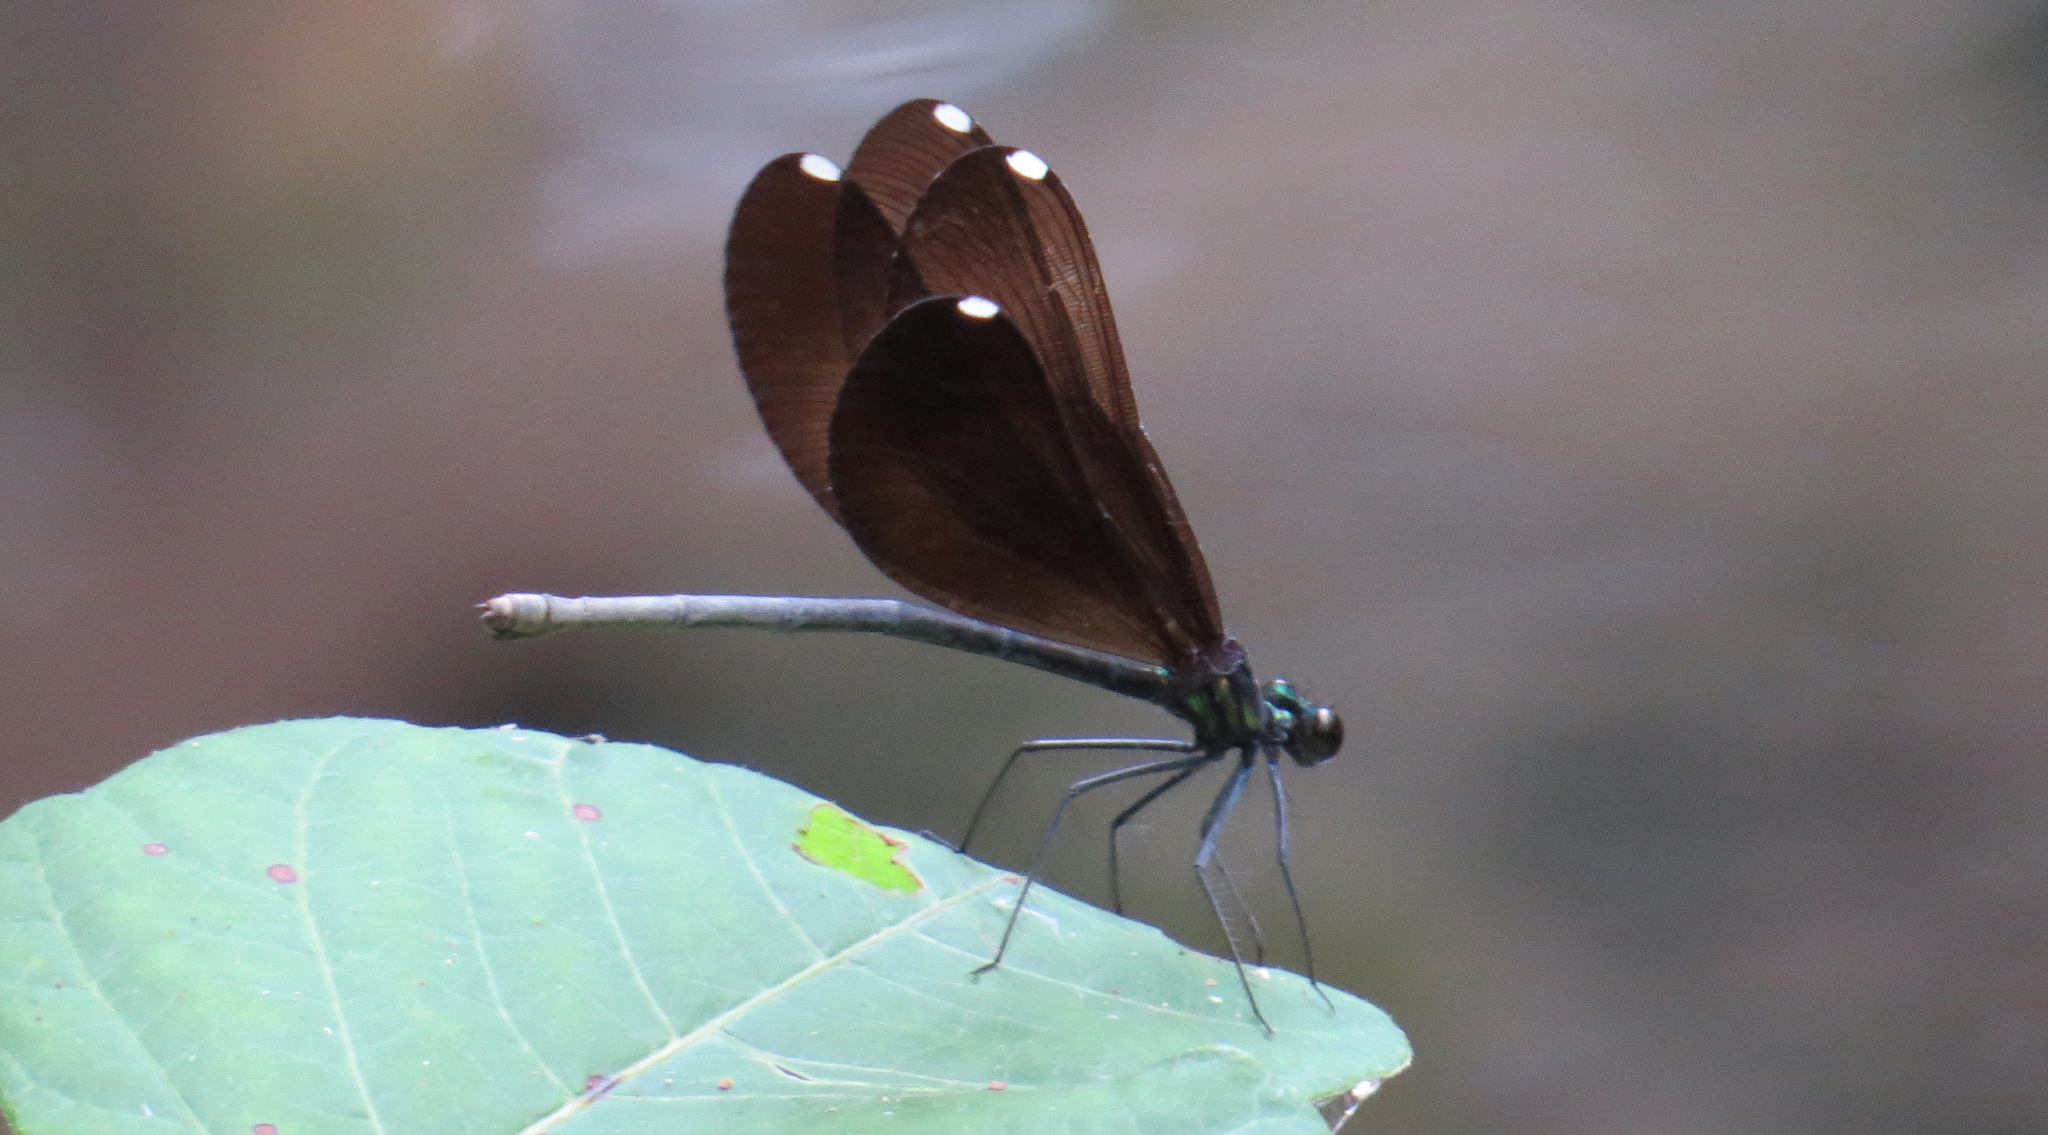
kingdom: Animalia
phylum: Arthropoda
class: Insecta
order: Odonata
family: Calopterygidae
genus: Calopteryx
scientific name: Calopteryx maculata
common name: Ebony jewelwing
